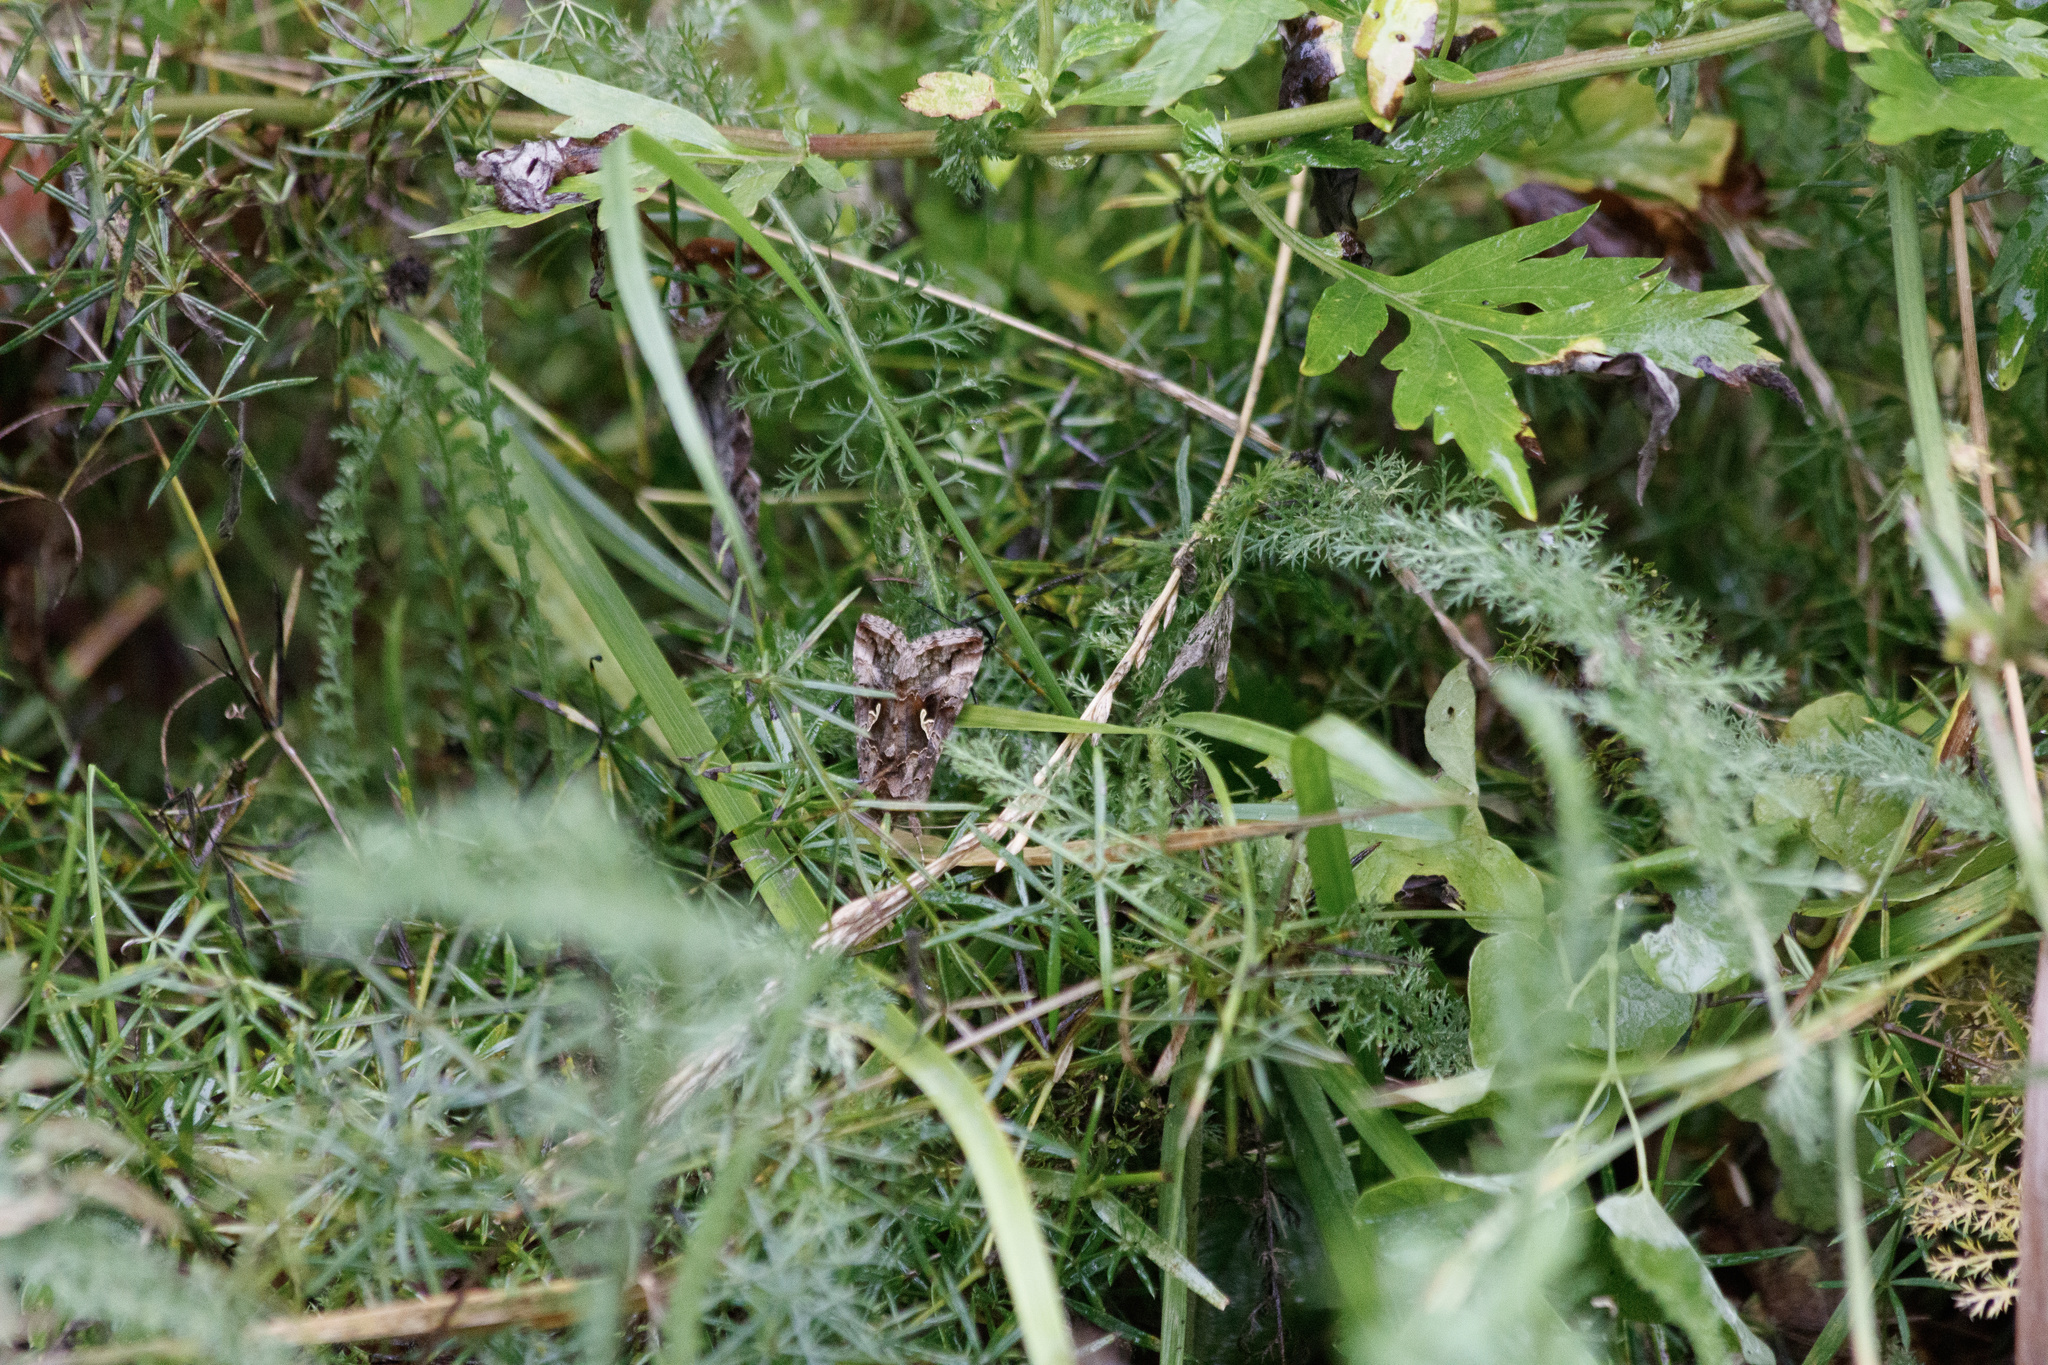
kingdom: Animalia
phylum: Arthropoda
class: Insecta
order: Lepidoptera
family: Noctuidae
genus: Autographa
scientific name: Autographa gamma
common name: Silver y
